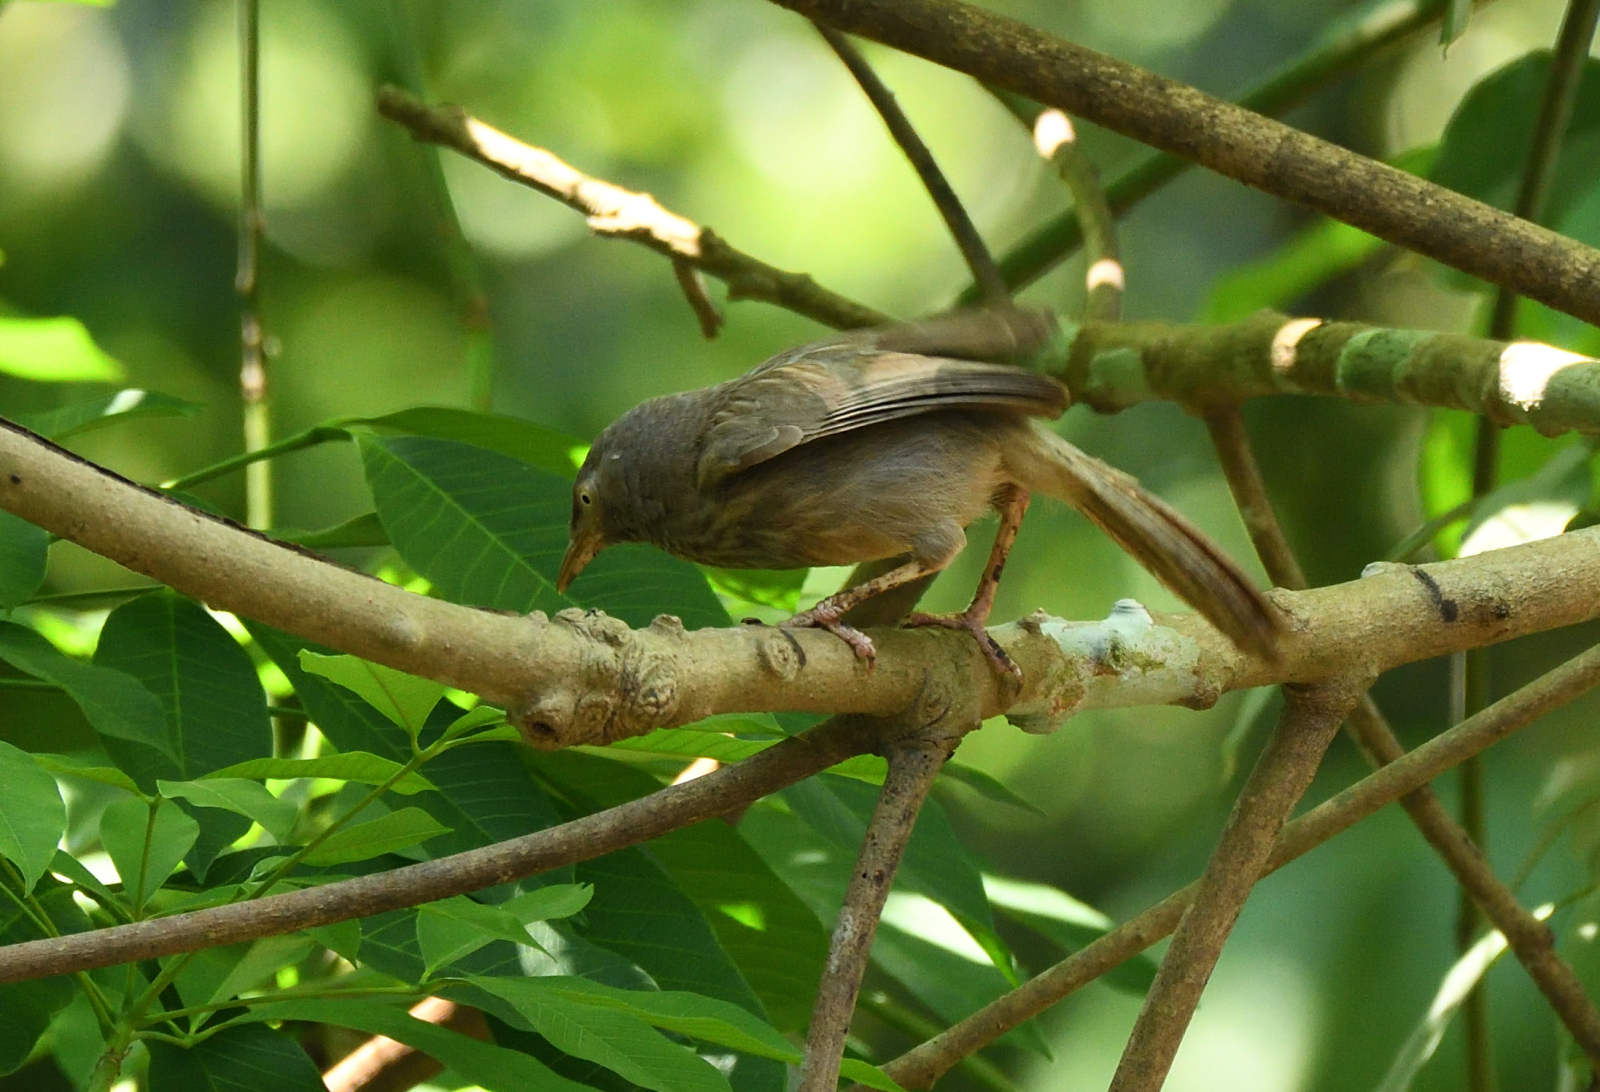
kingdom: Animalia
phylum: Chordata
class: Aves
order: Passeriformes
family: Leiothrichidae
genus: Turdoides
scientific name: Turdoides striata
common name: Jungle babbler
